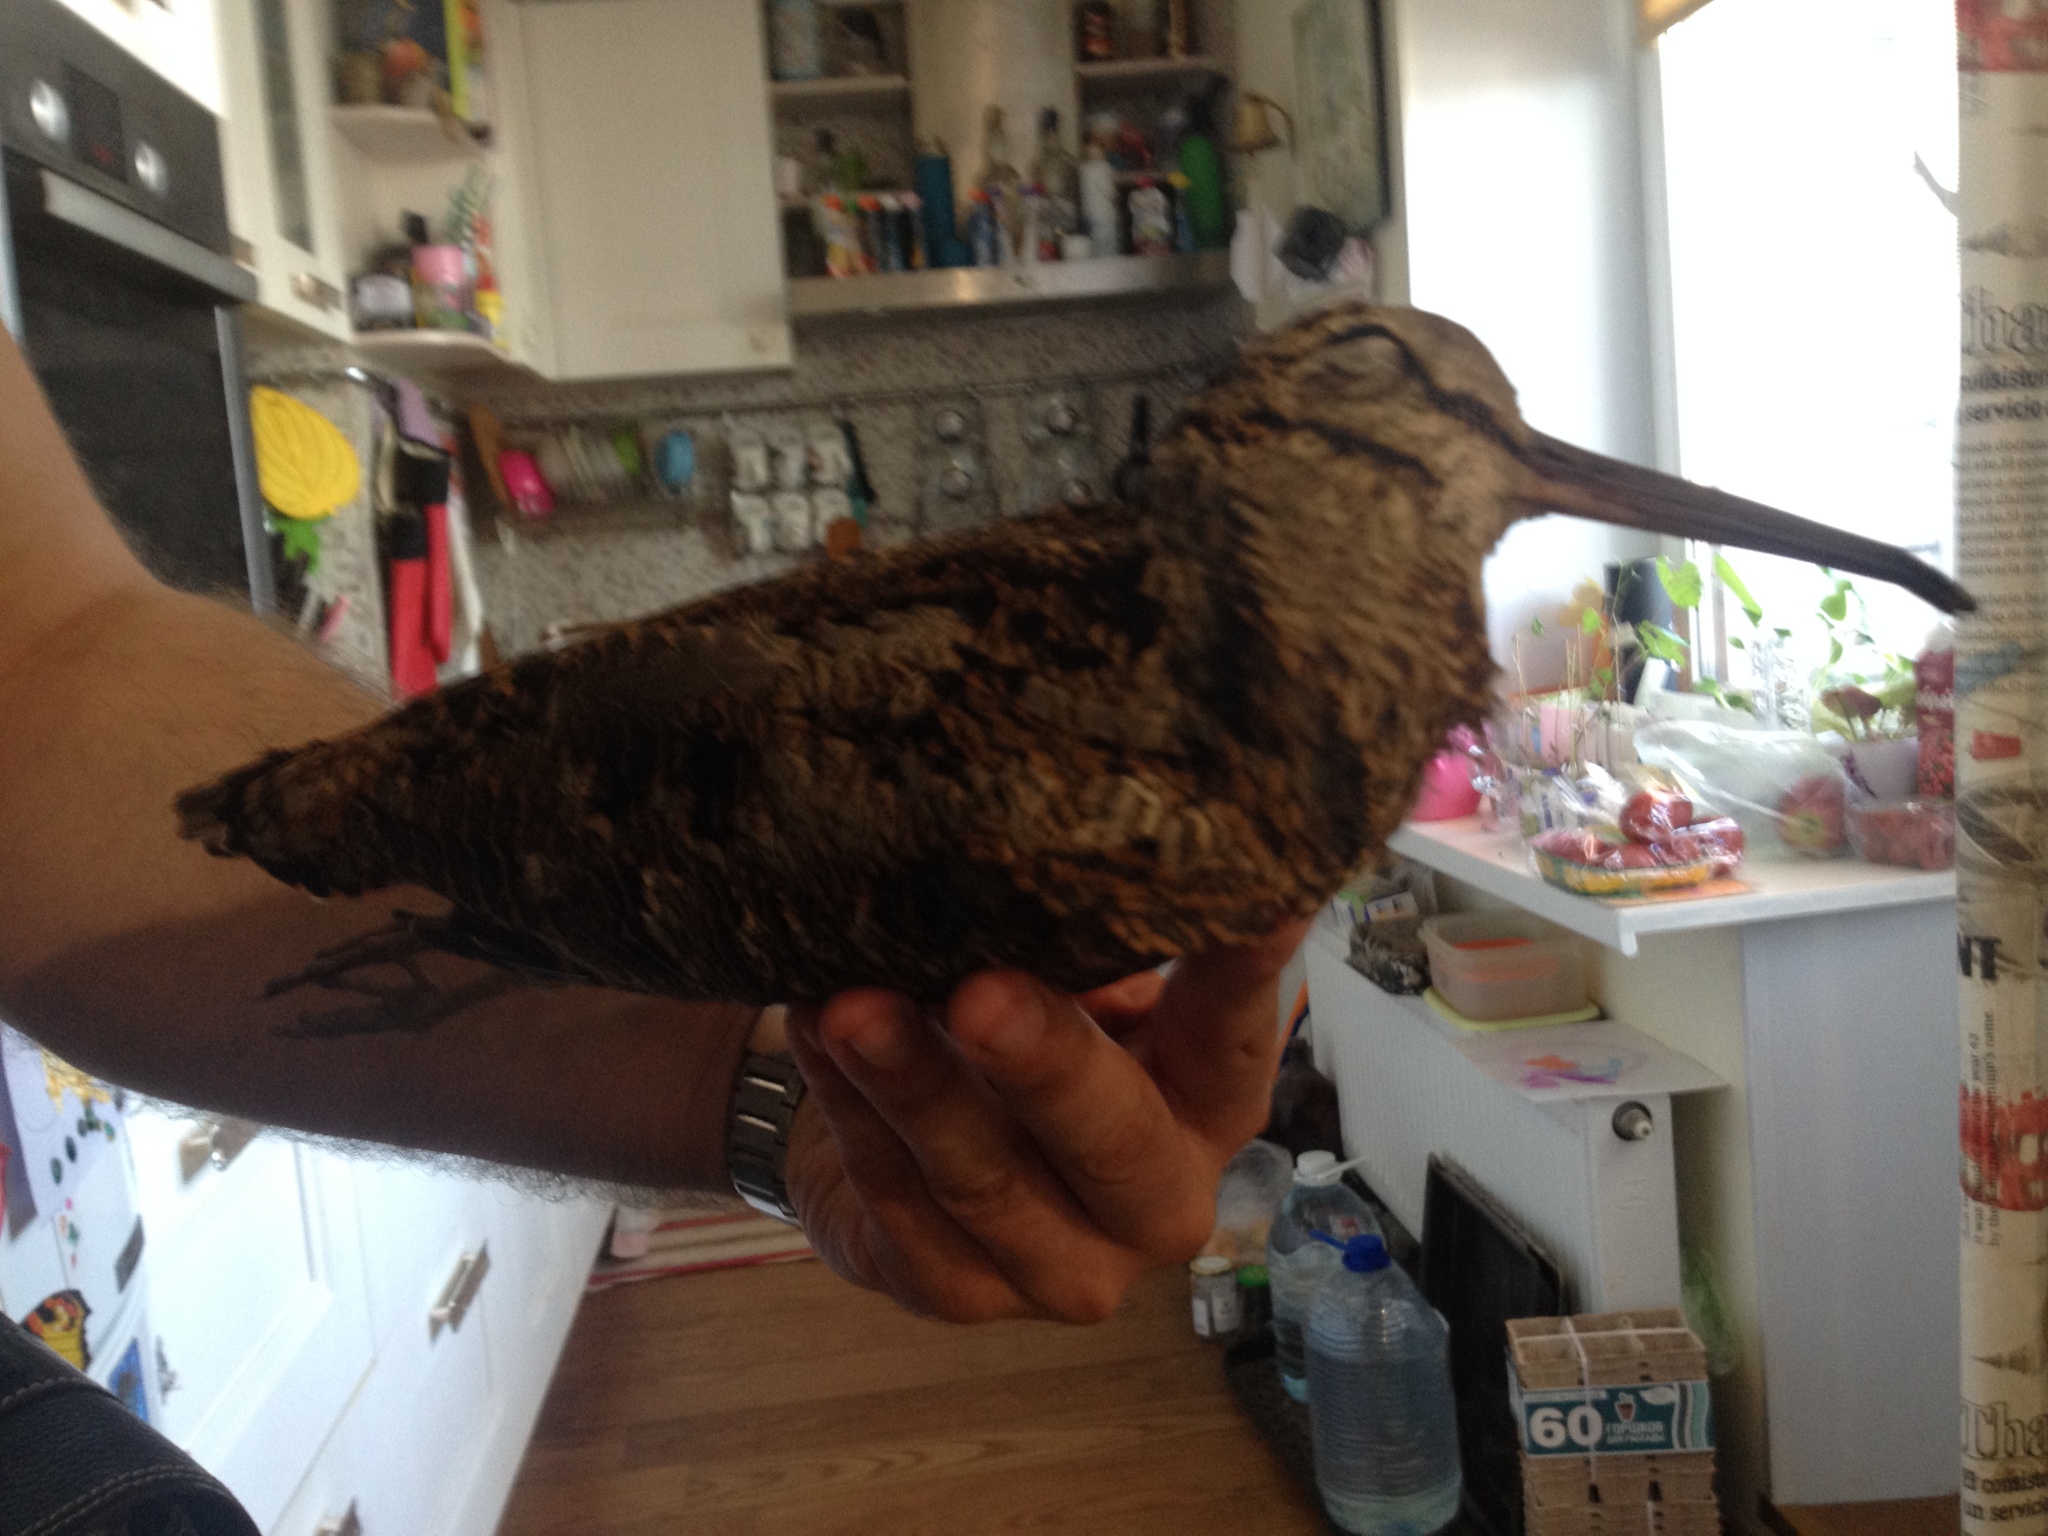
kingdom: Animalia
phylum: Chordata
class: Aves
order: Charadriiformes
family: Scolopacidae
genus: Scolopax
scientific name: Scolopax rusticola
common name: Eurasian woodcock
